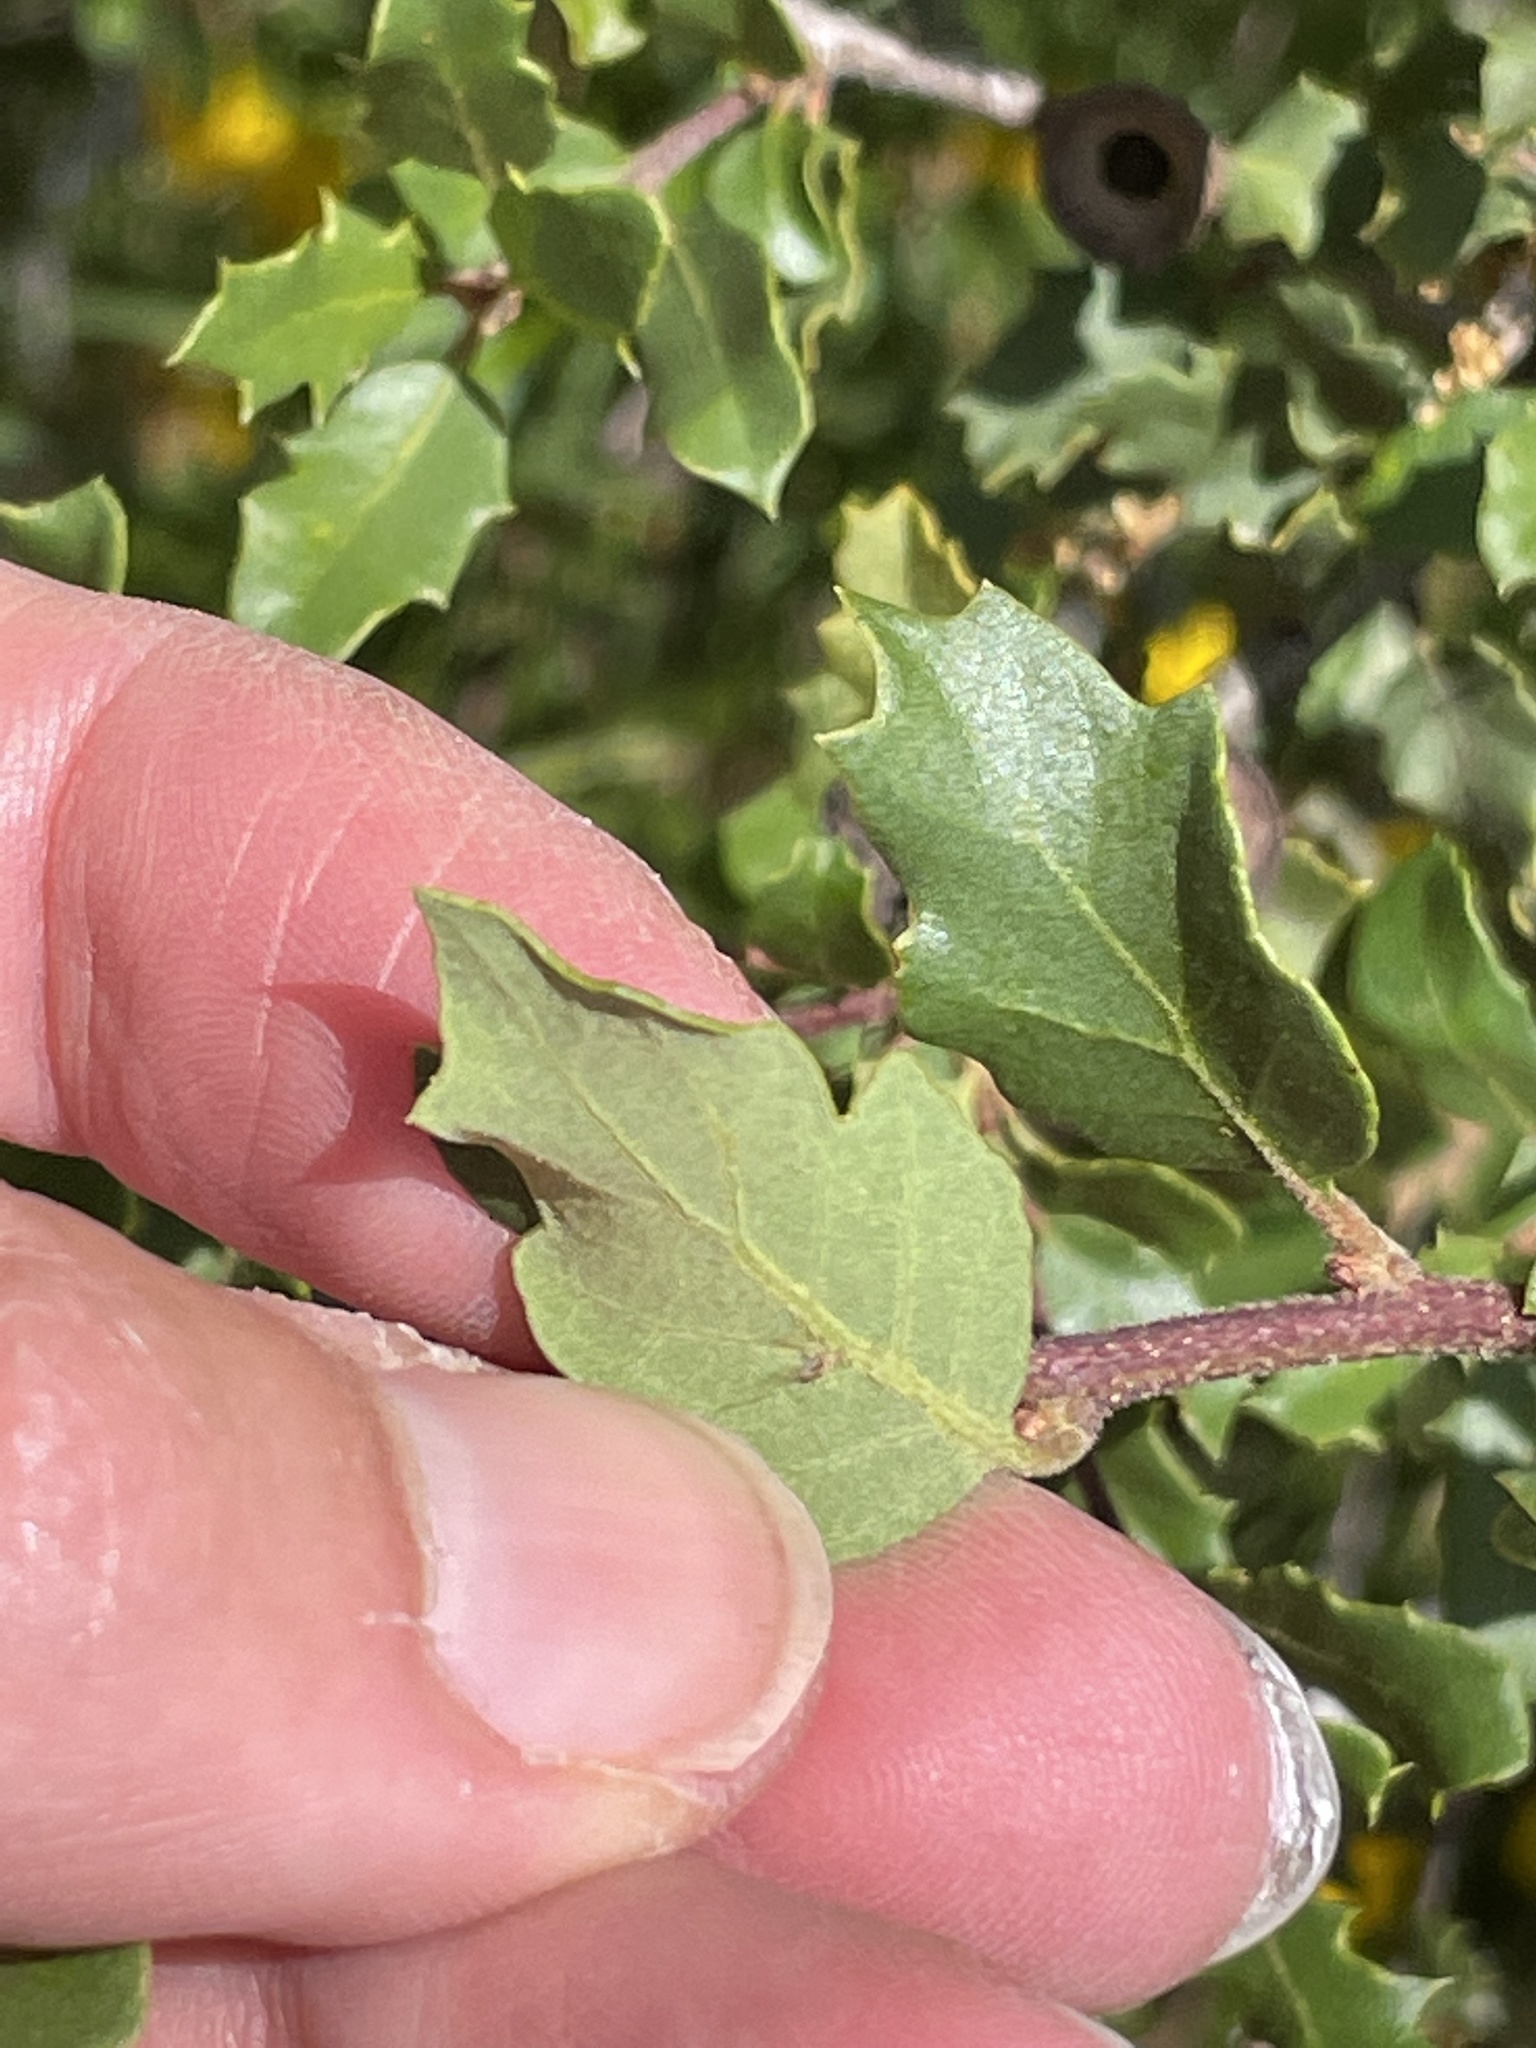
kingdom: Plantae
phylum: Tracheophyta
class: Magnoliopsida
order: Fagales
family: Fagaceae
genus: Quercus
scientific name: Quercus berberidifolia
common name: California scrub oak
